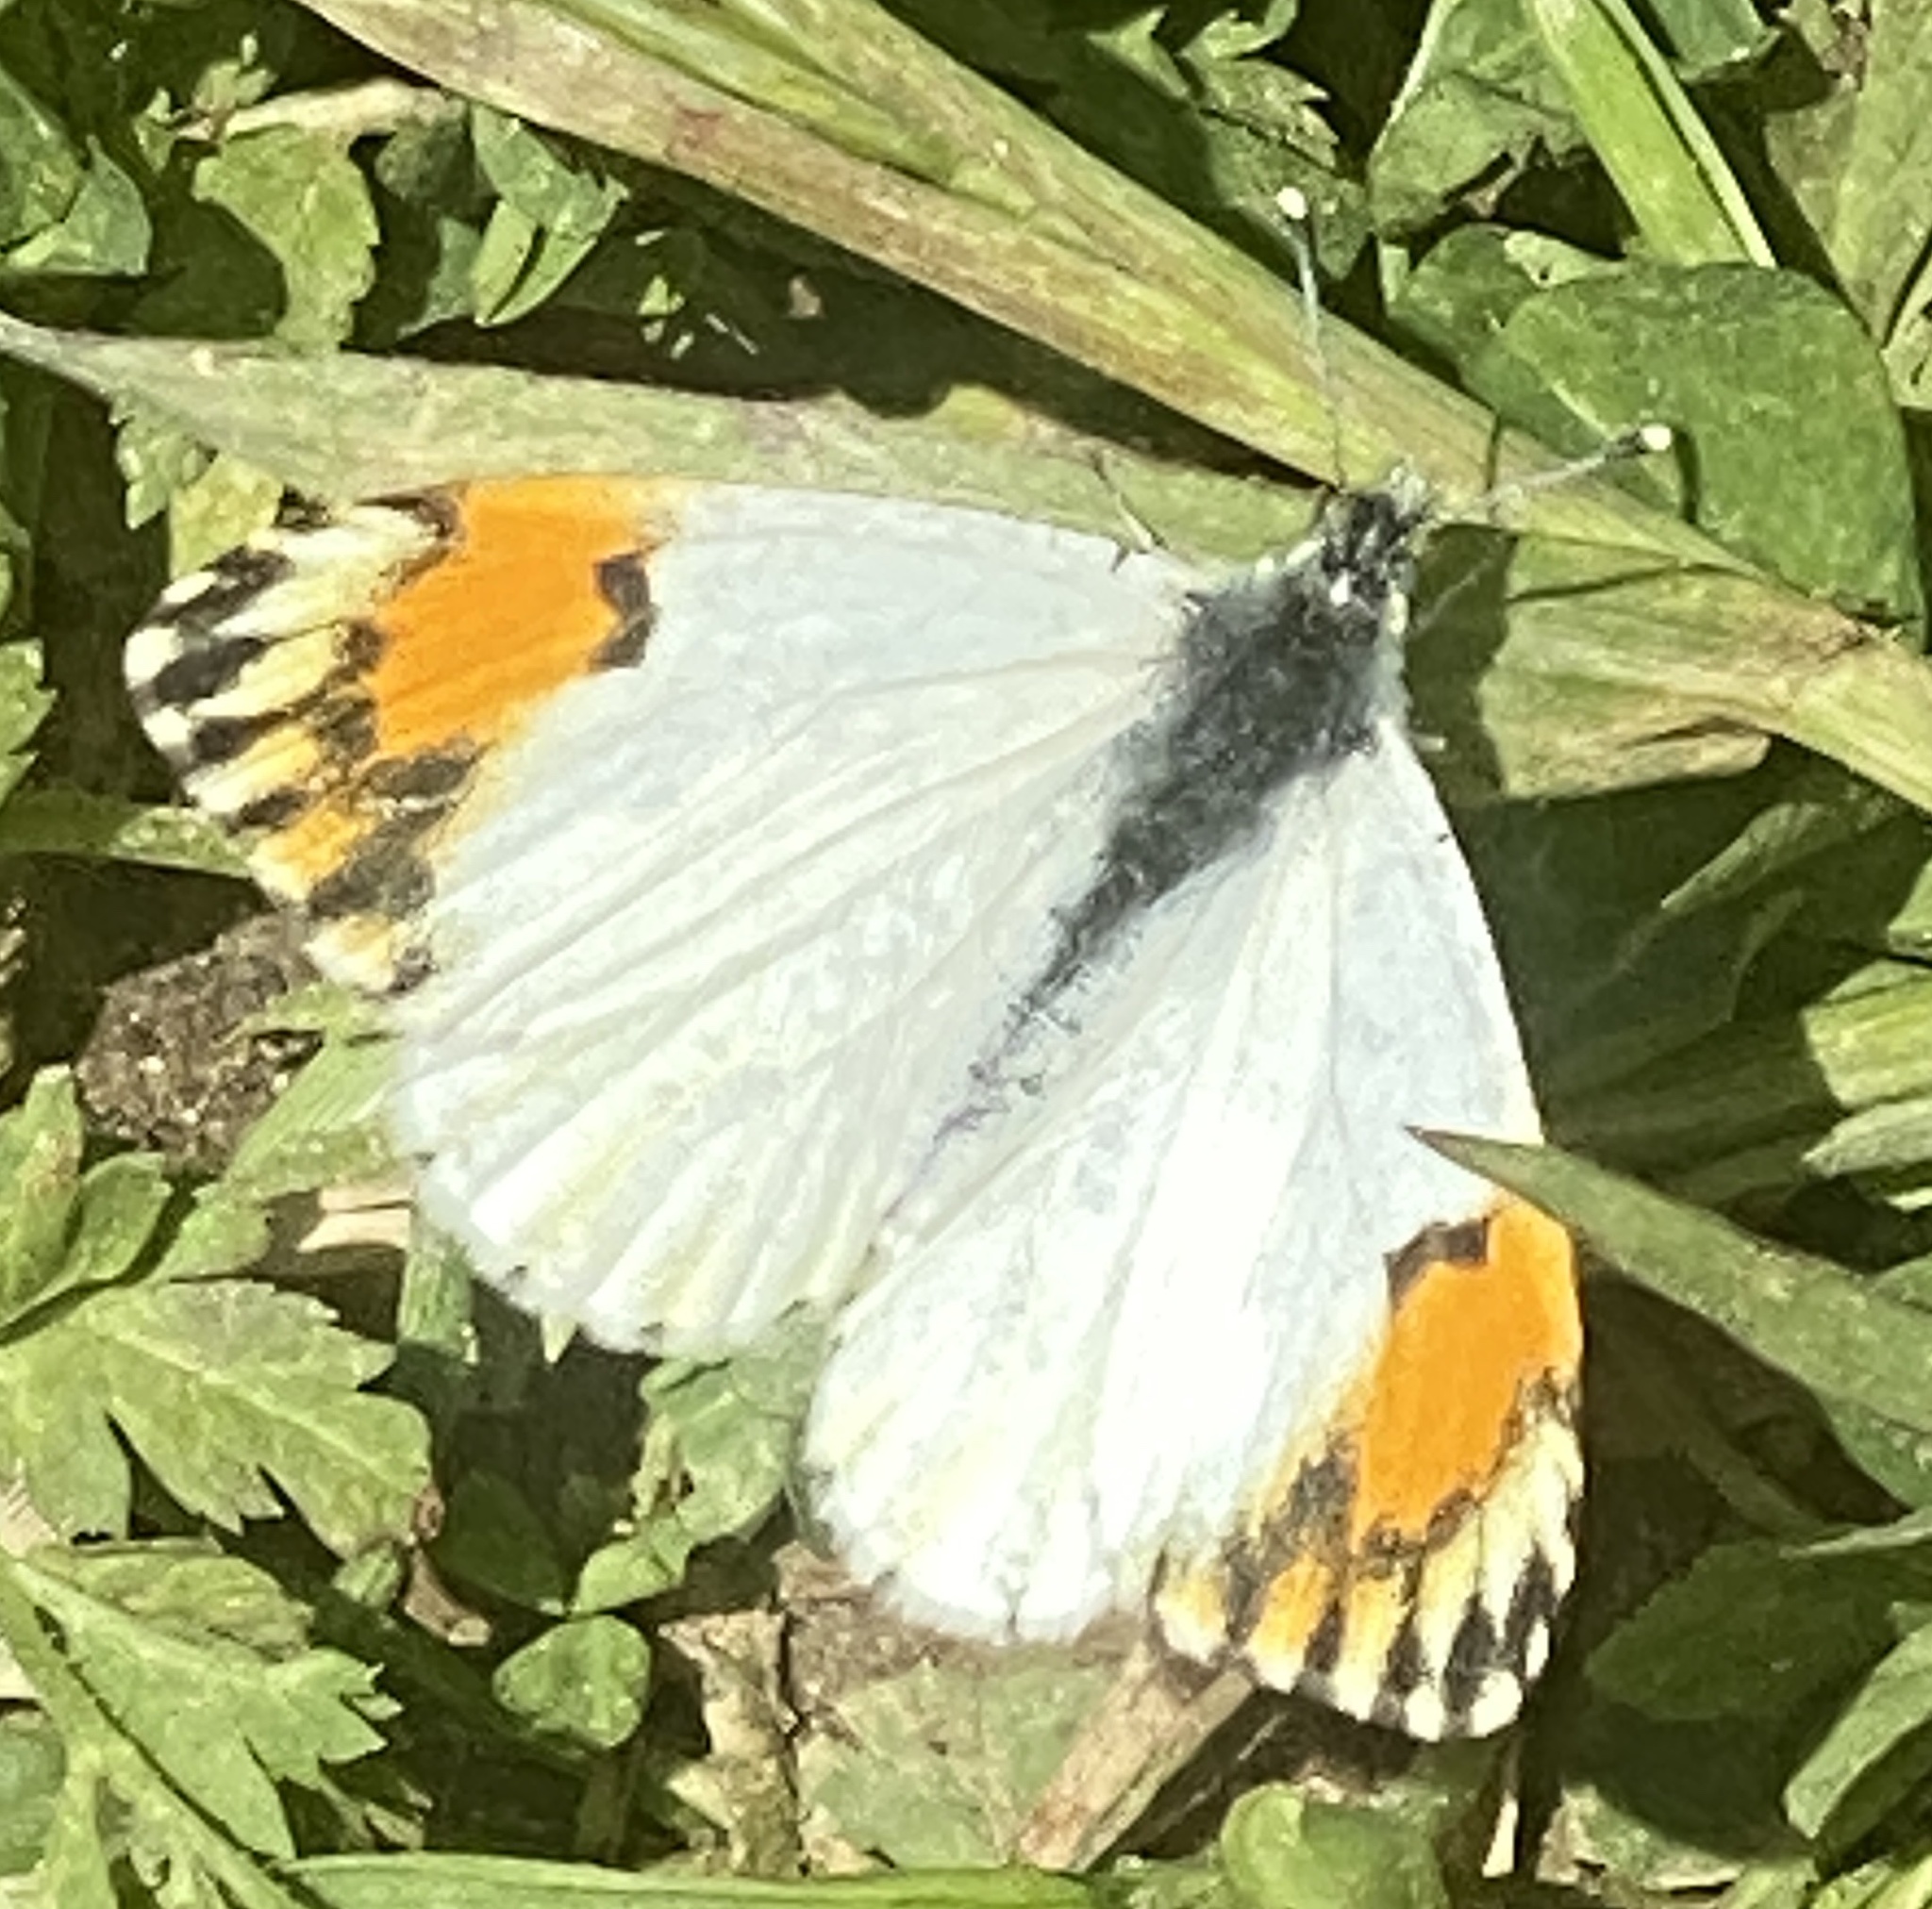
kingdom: Animalia
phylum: Arthropoda
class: Insecta
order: Lepidoptera
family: Pieridae
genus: Anthocharis
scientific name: Anthocharis sara
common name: Sara's orangetip
